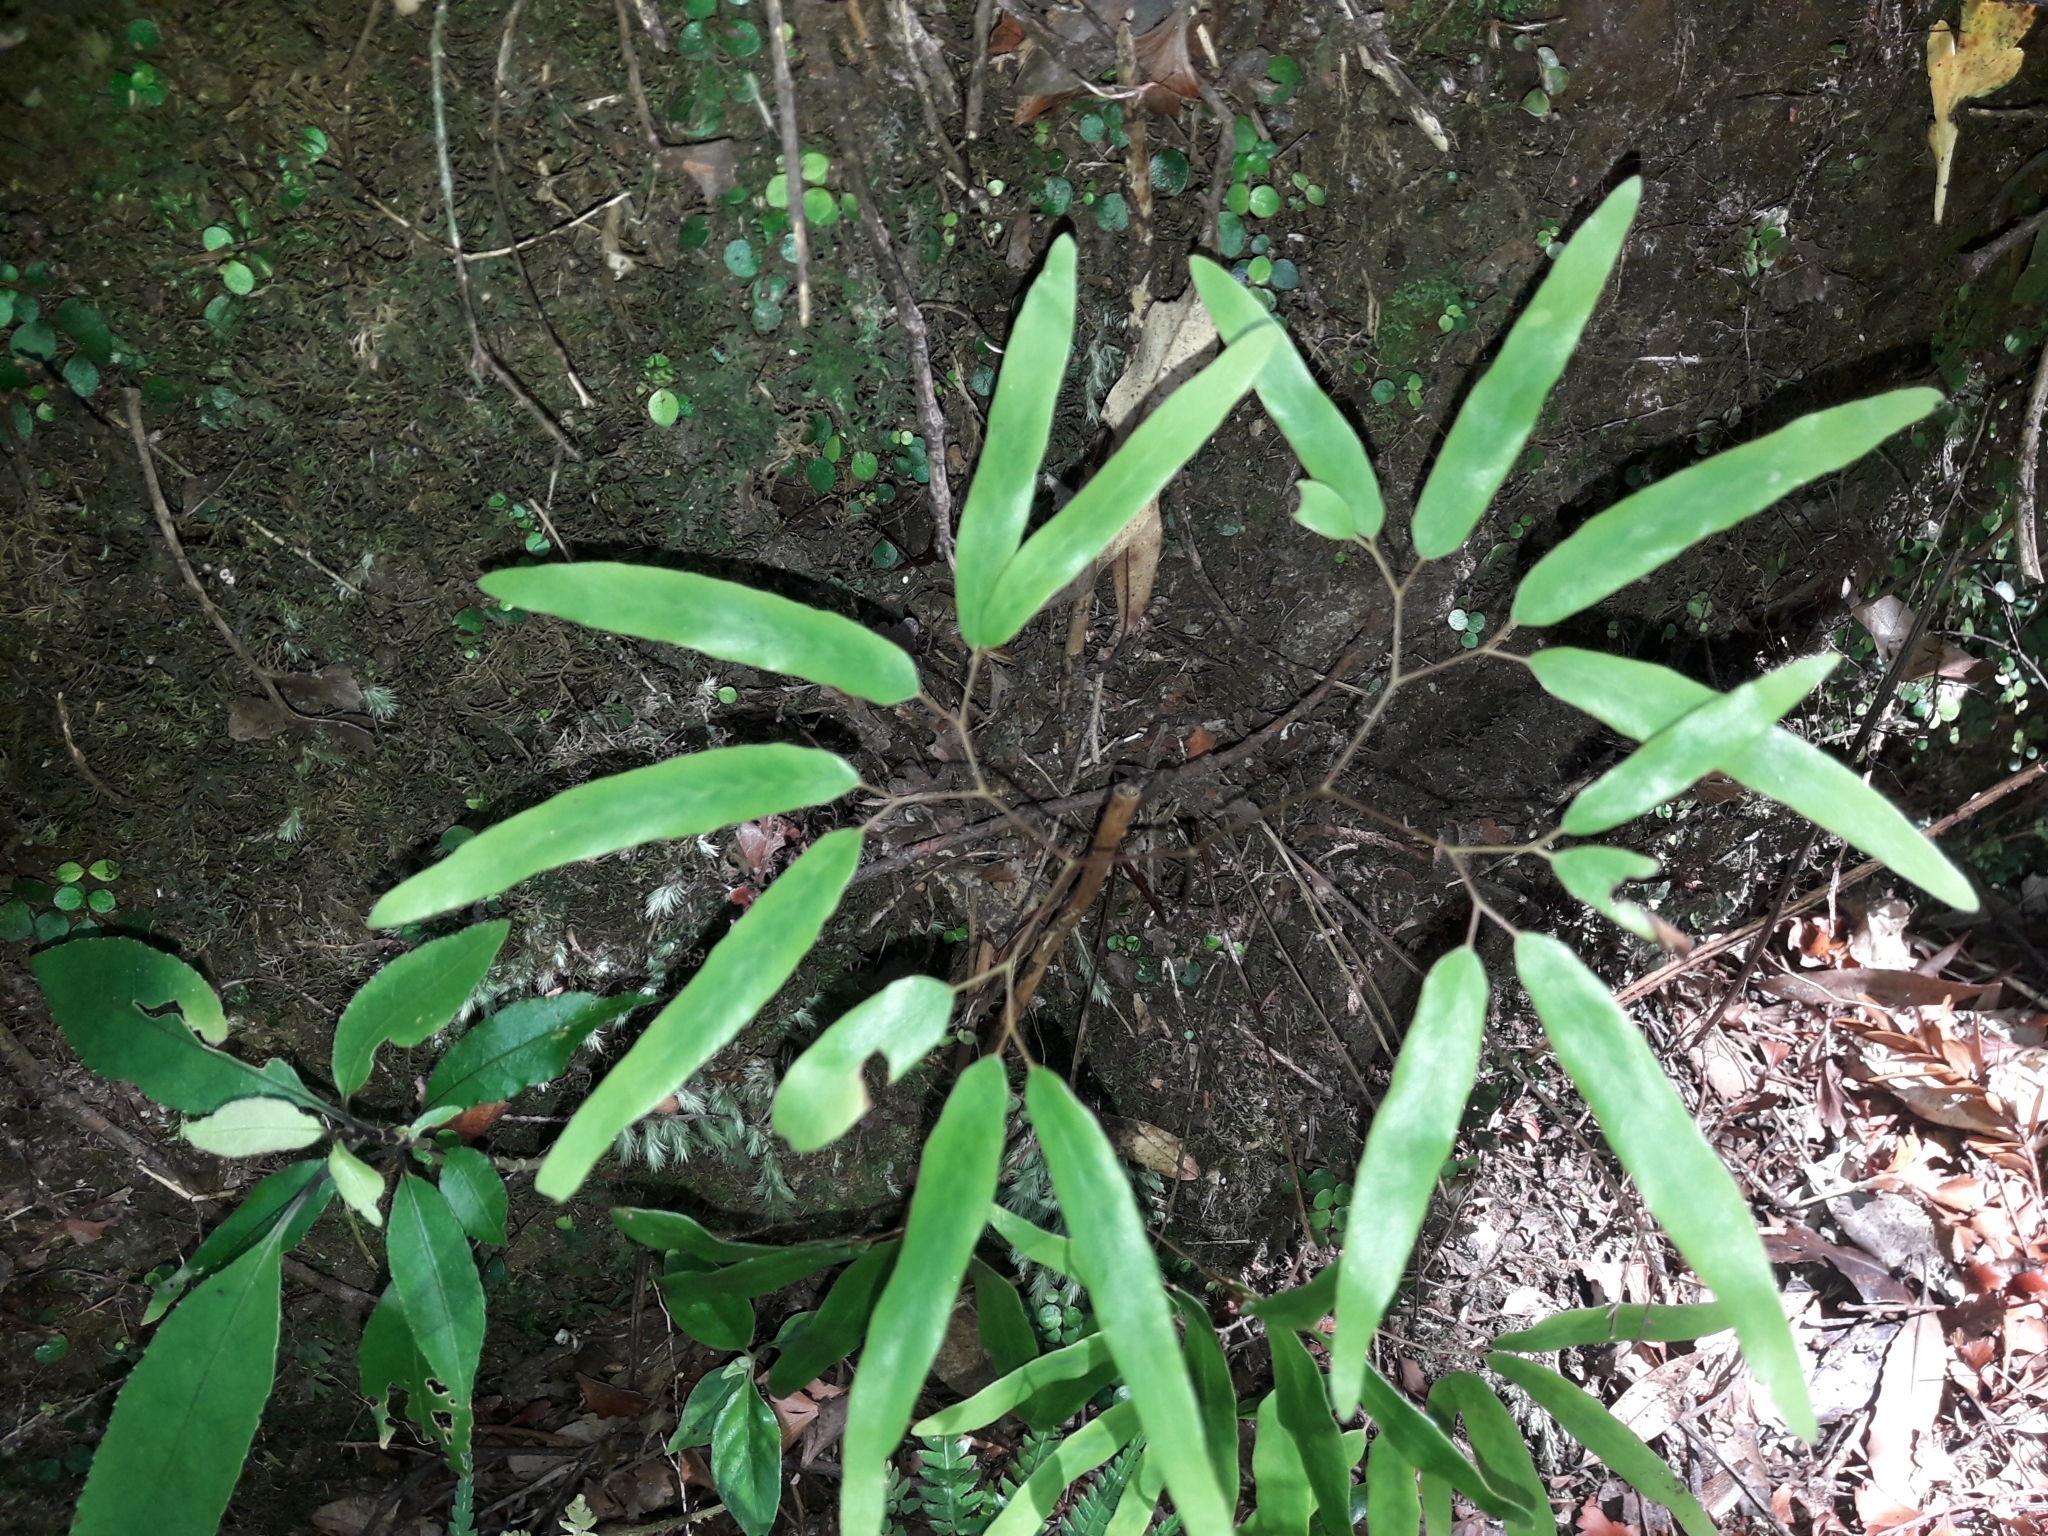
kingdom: Plantae
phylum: Tracheophyta
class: Polypodiopsida
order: Schizaeales
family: Lygodiaceae
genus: Lygodium
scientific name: Lygodium articulatum
